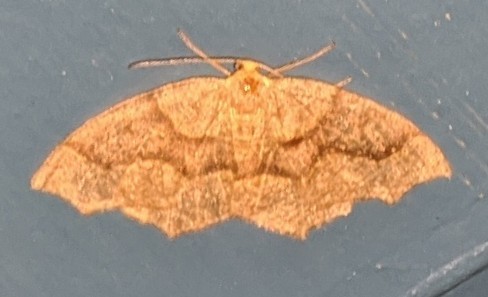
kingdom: Animalia
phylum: Arthropoda
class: Insecta
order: Lepidoptera
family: Geometridae
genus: Lambdina
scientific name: Lambdina fiscellaria
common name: Hemlock looper
